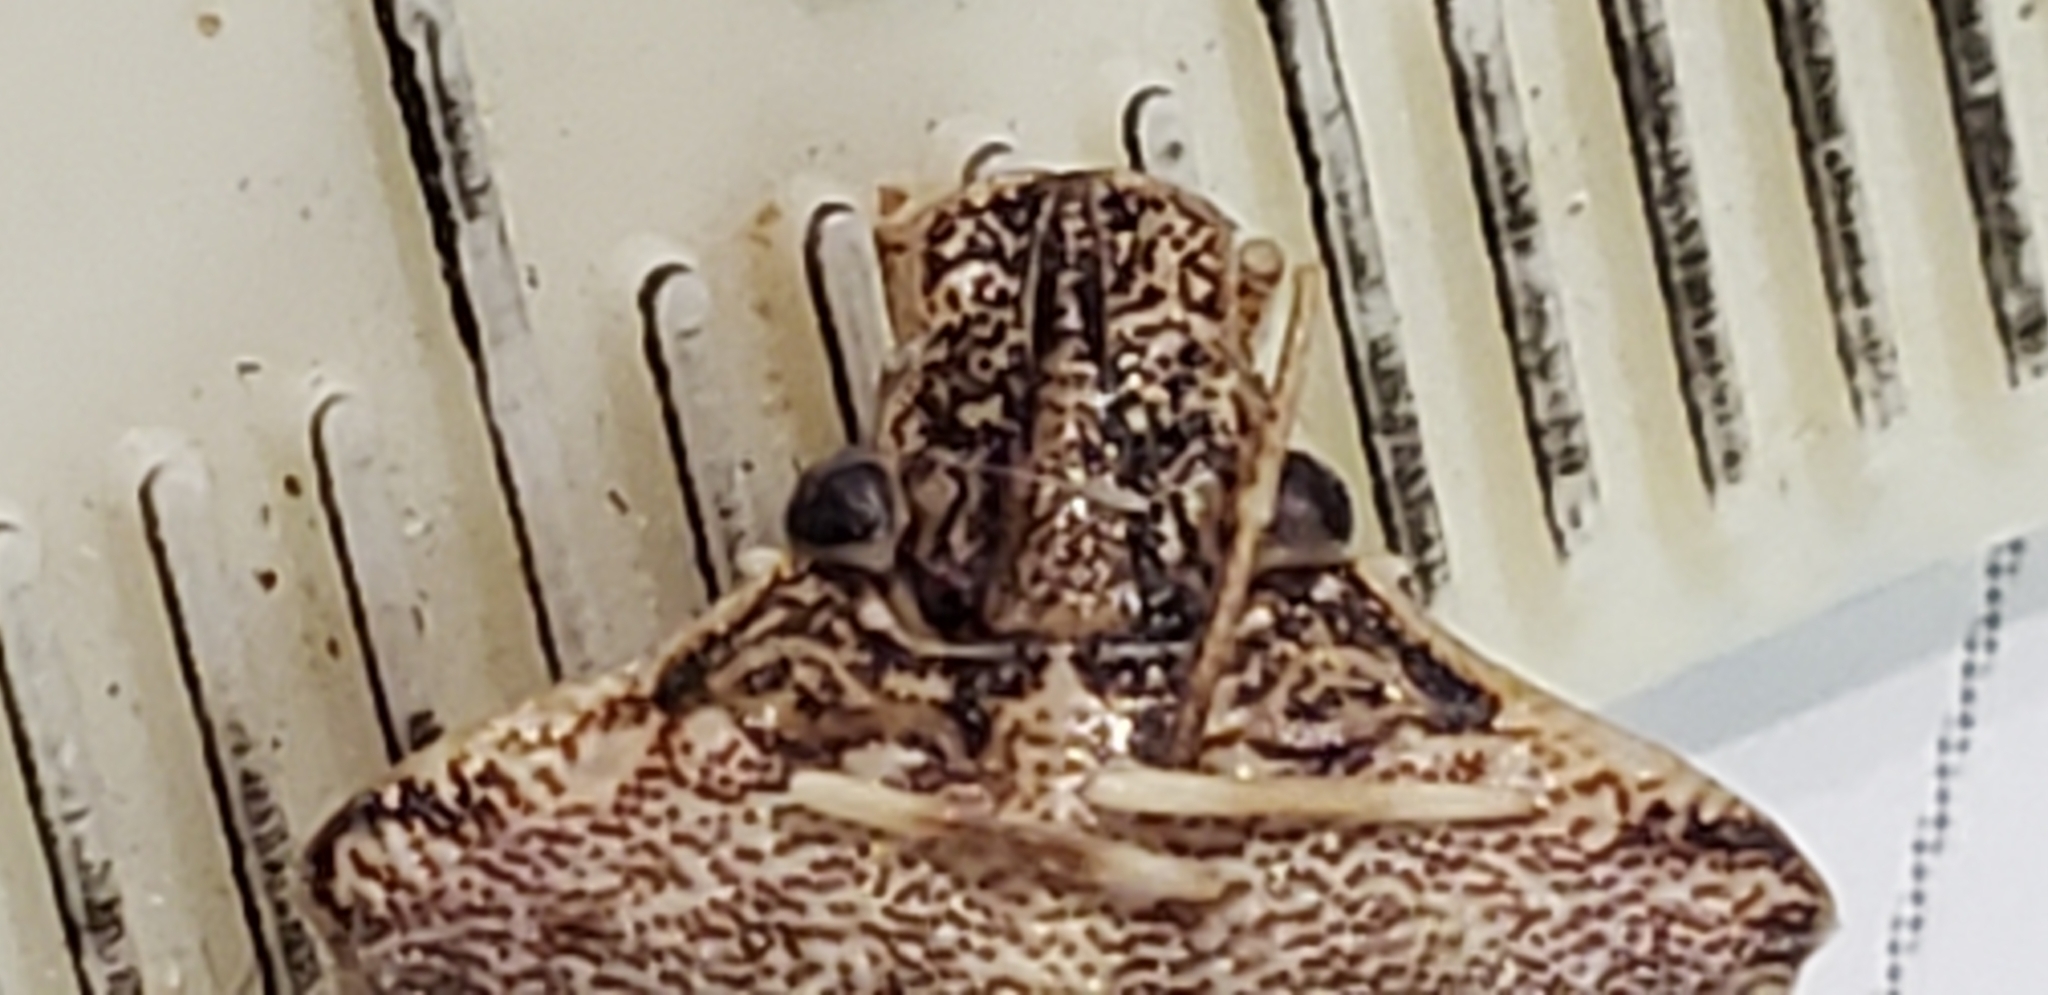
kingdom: Animalia
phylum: Arthropoda
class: Insecta
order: Hemiptera
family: Pentatomidae
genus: Halyomorpha
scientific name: Halyomorpha halys
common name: Brown marmorated stink bug
